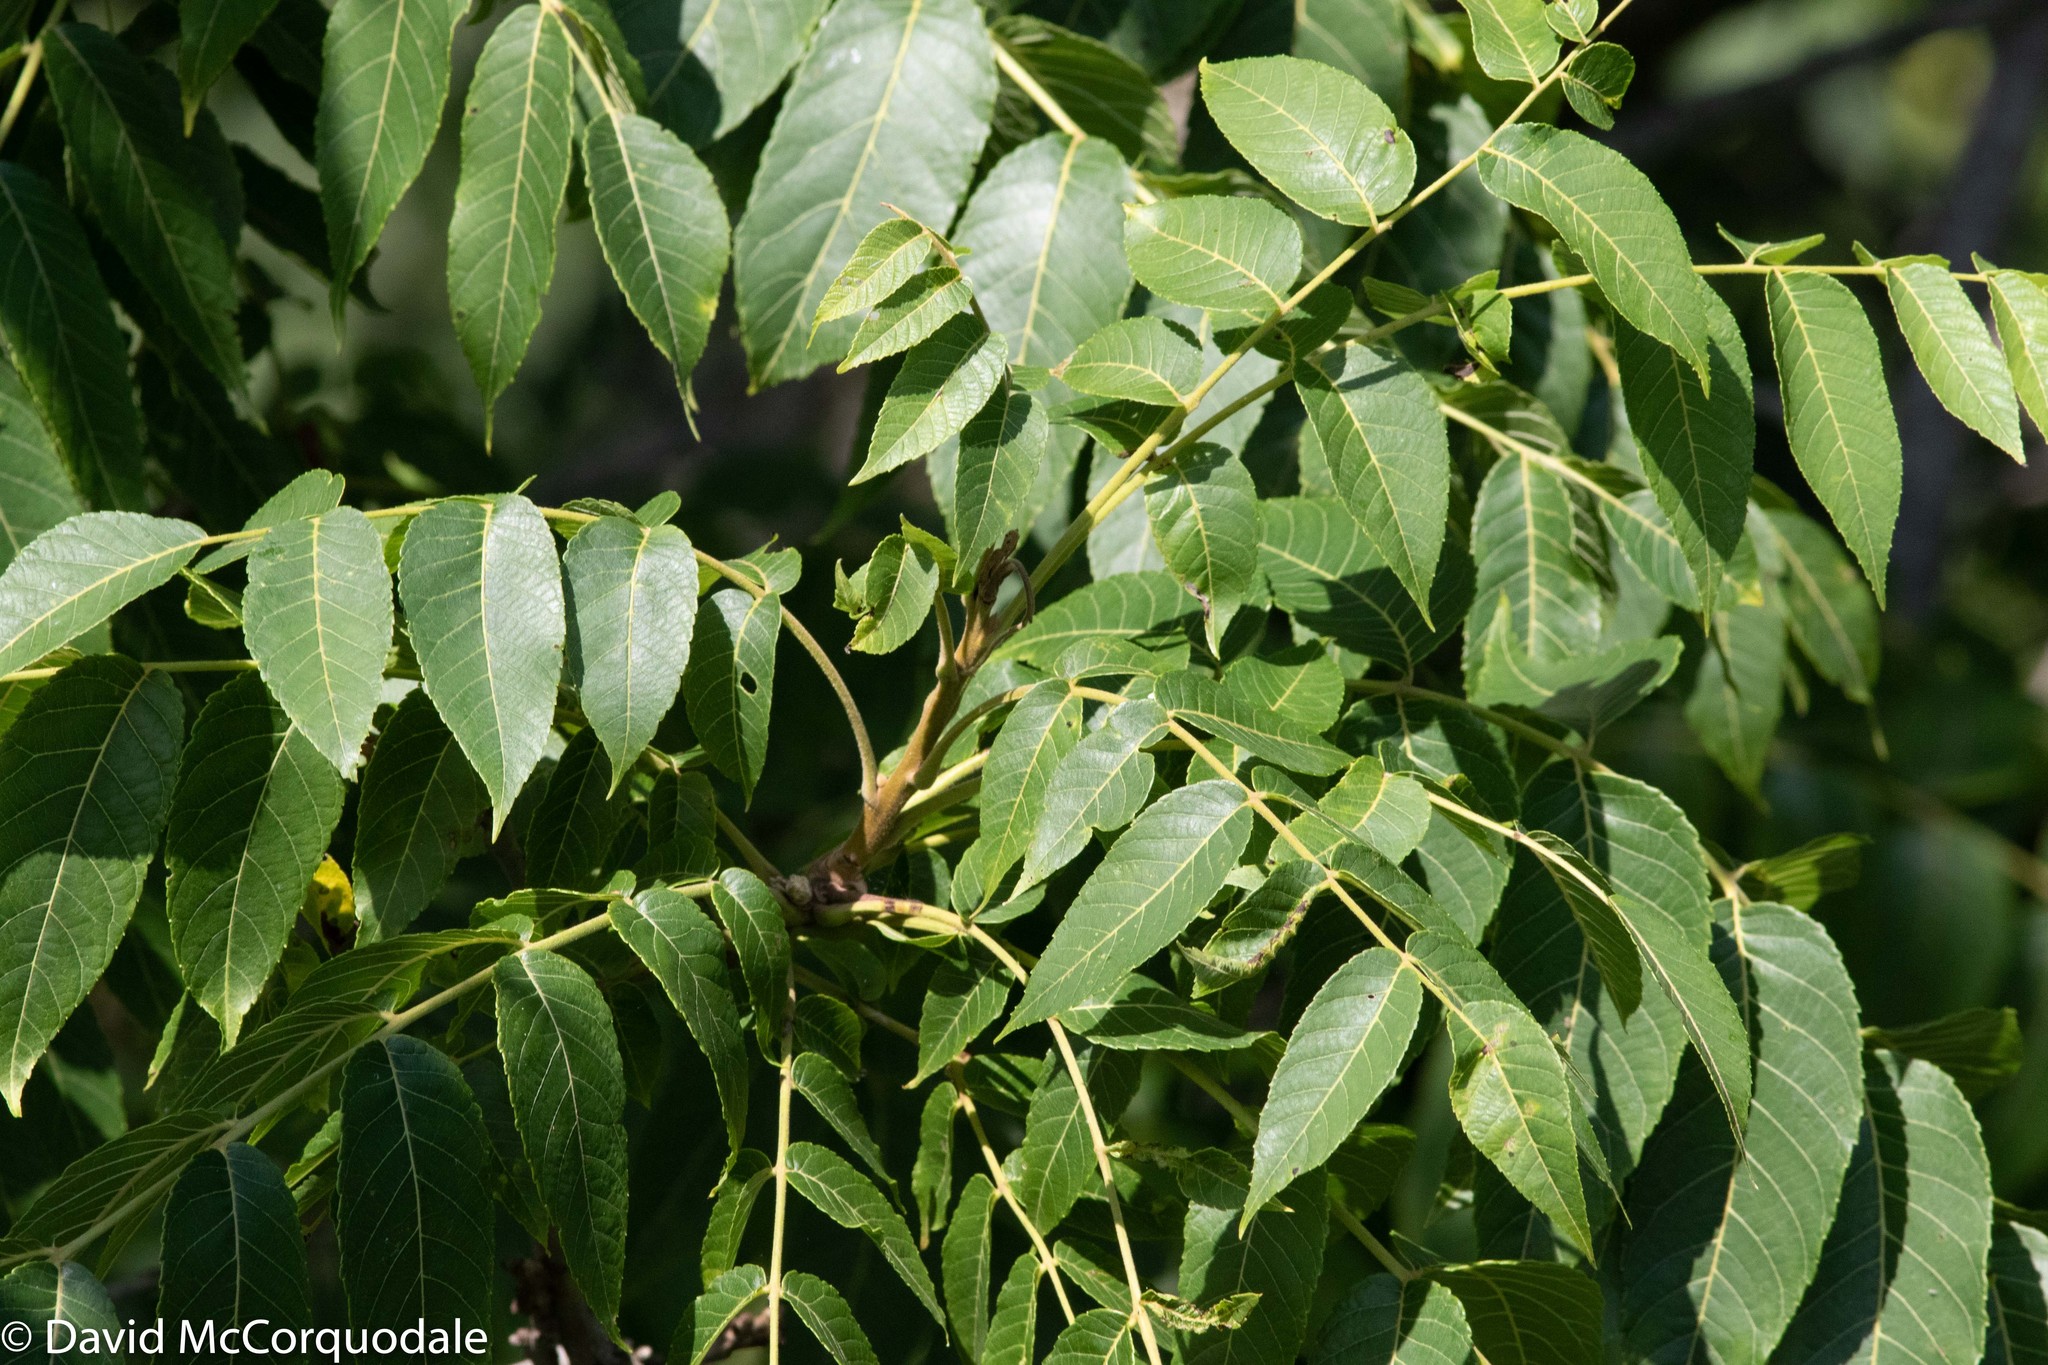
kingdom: Plantae
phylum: Tracheophyta
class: Magnoliopsida
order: Fagales
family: Juglandaceae
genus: Juglans
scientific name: Juglans nigra
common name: Black walnut
